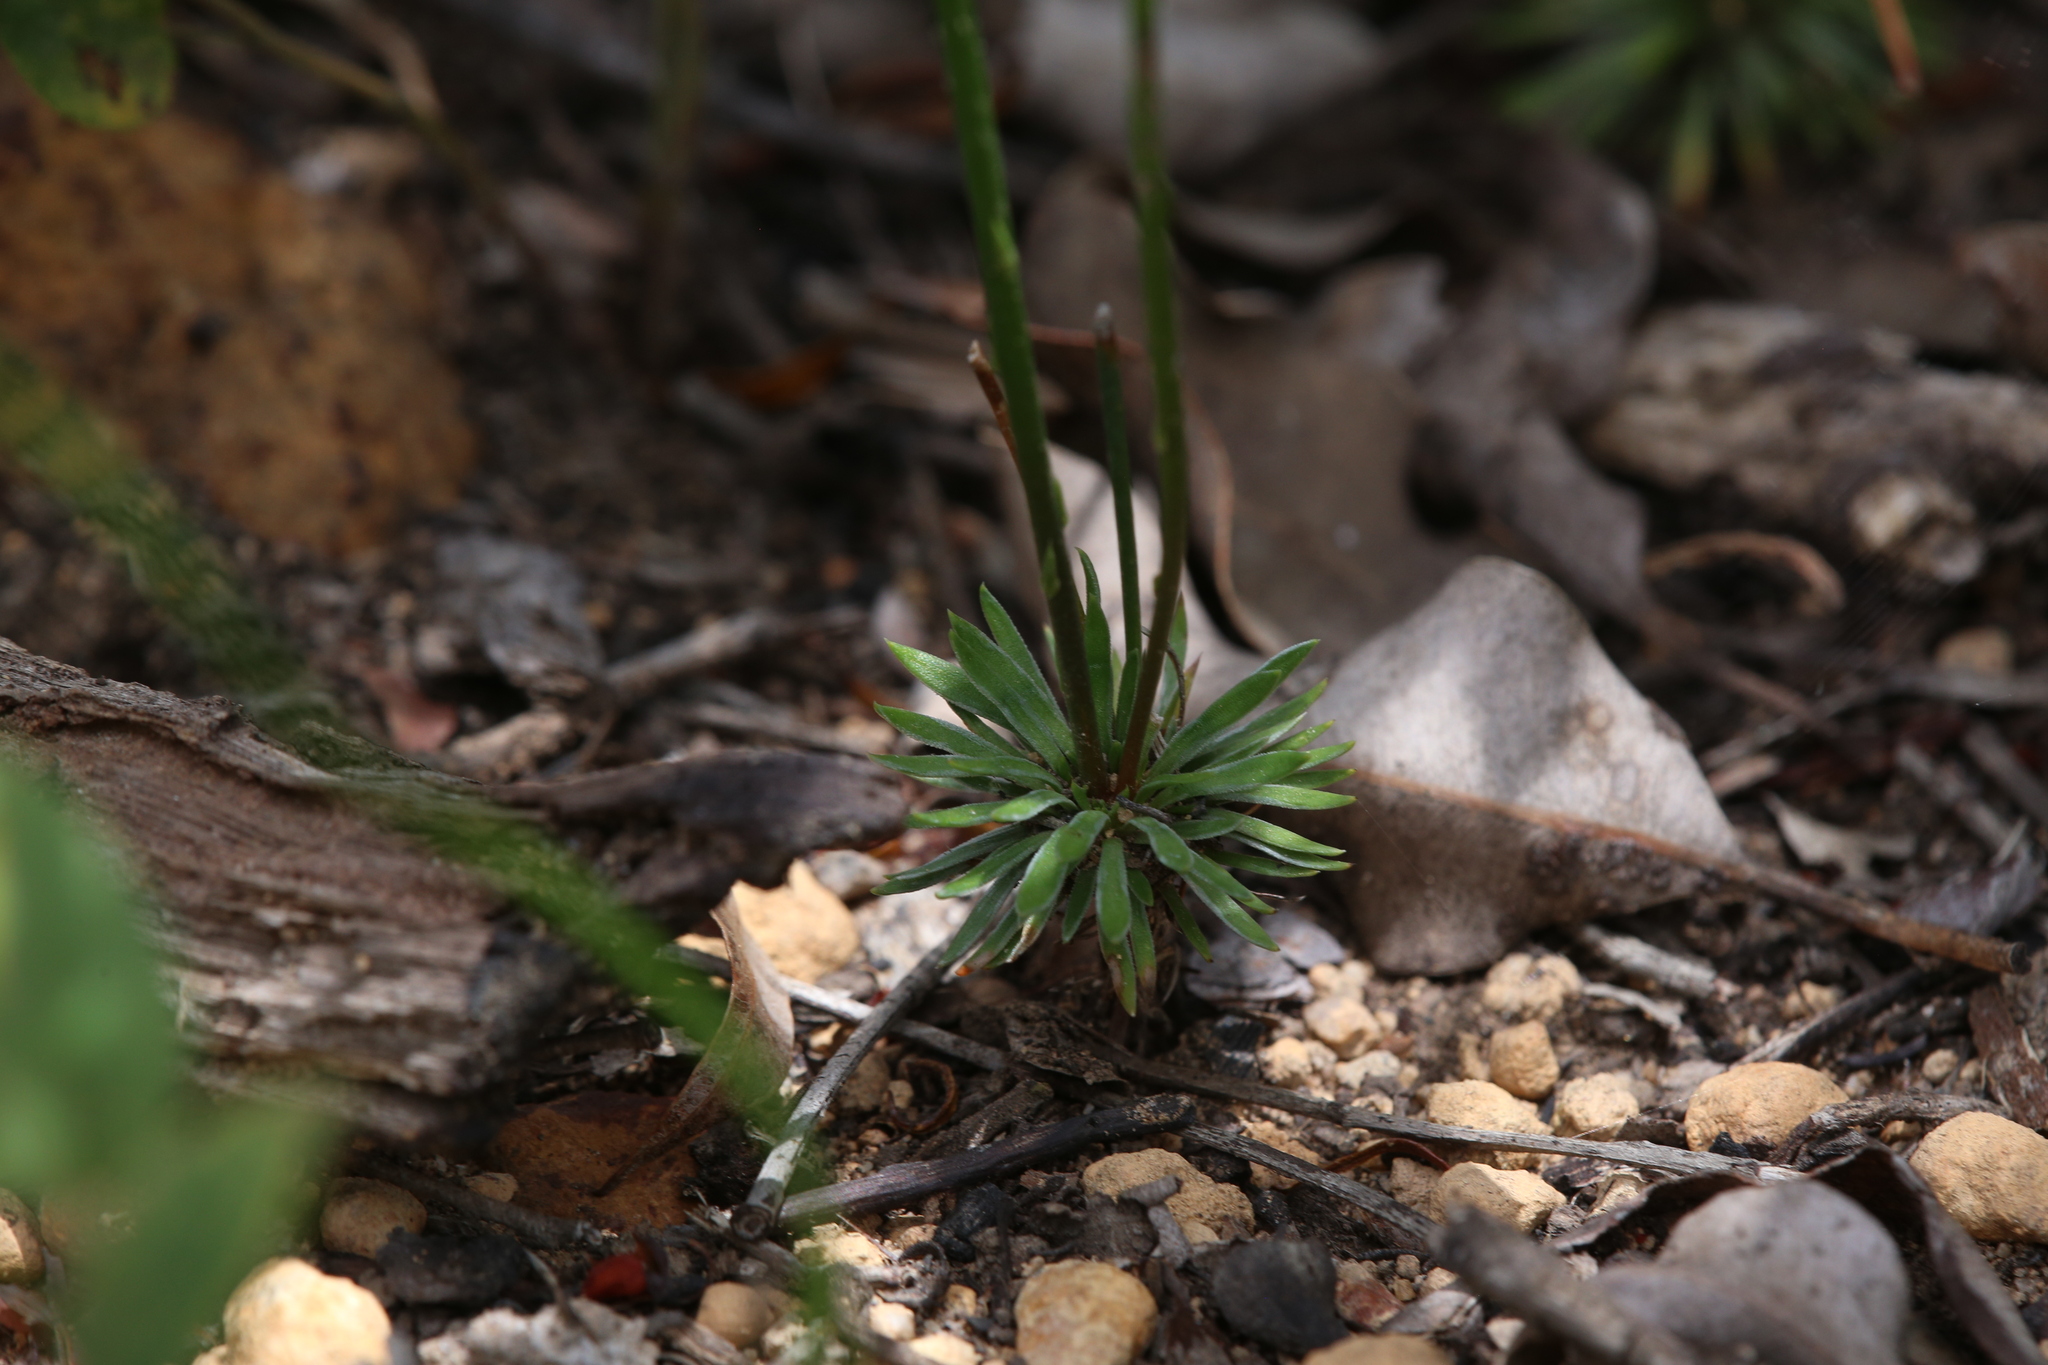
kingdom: Plantae
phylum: Tracheophyta
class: Magnoliopsida
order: Asterales
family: Stylidiaceae
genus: Stylidium
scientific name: Stylidium scariosum
